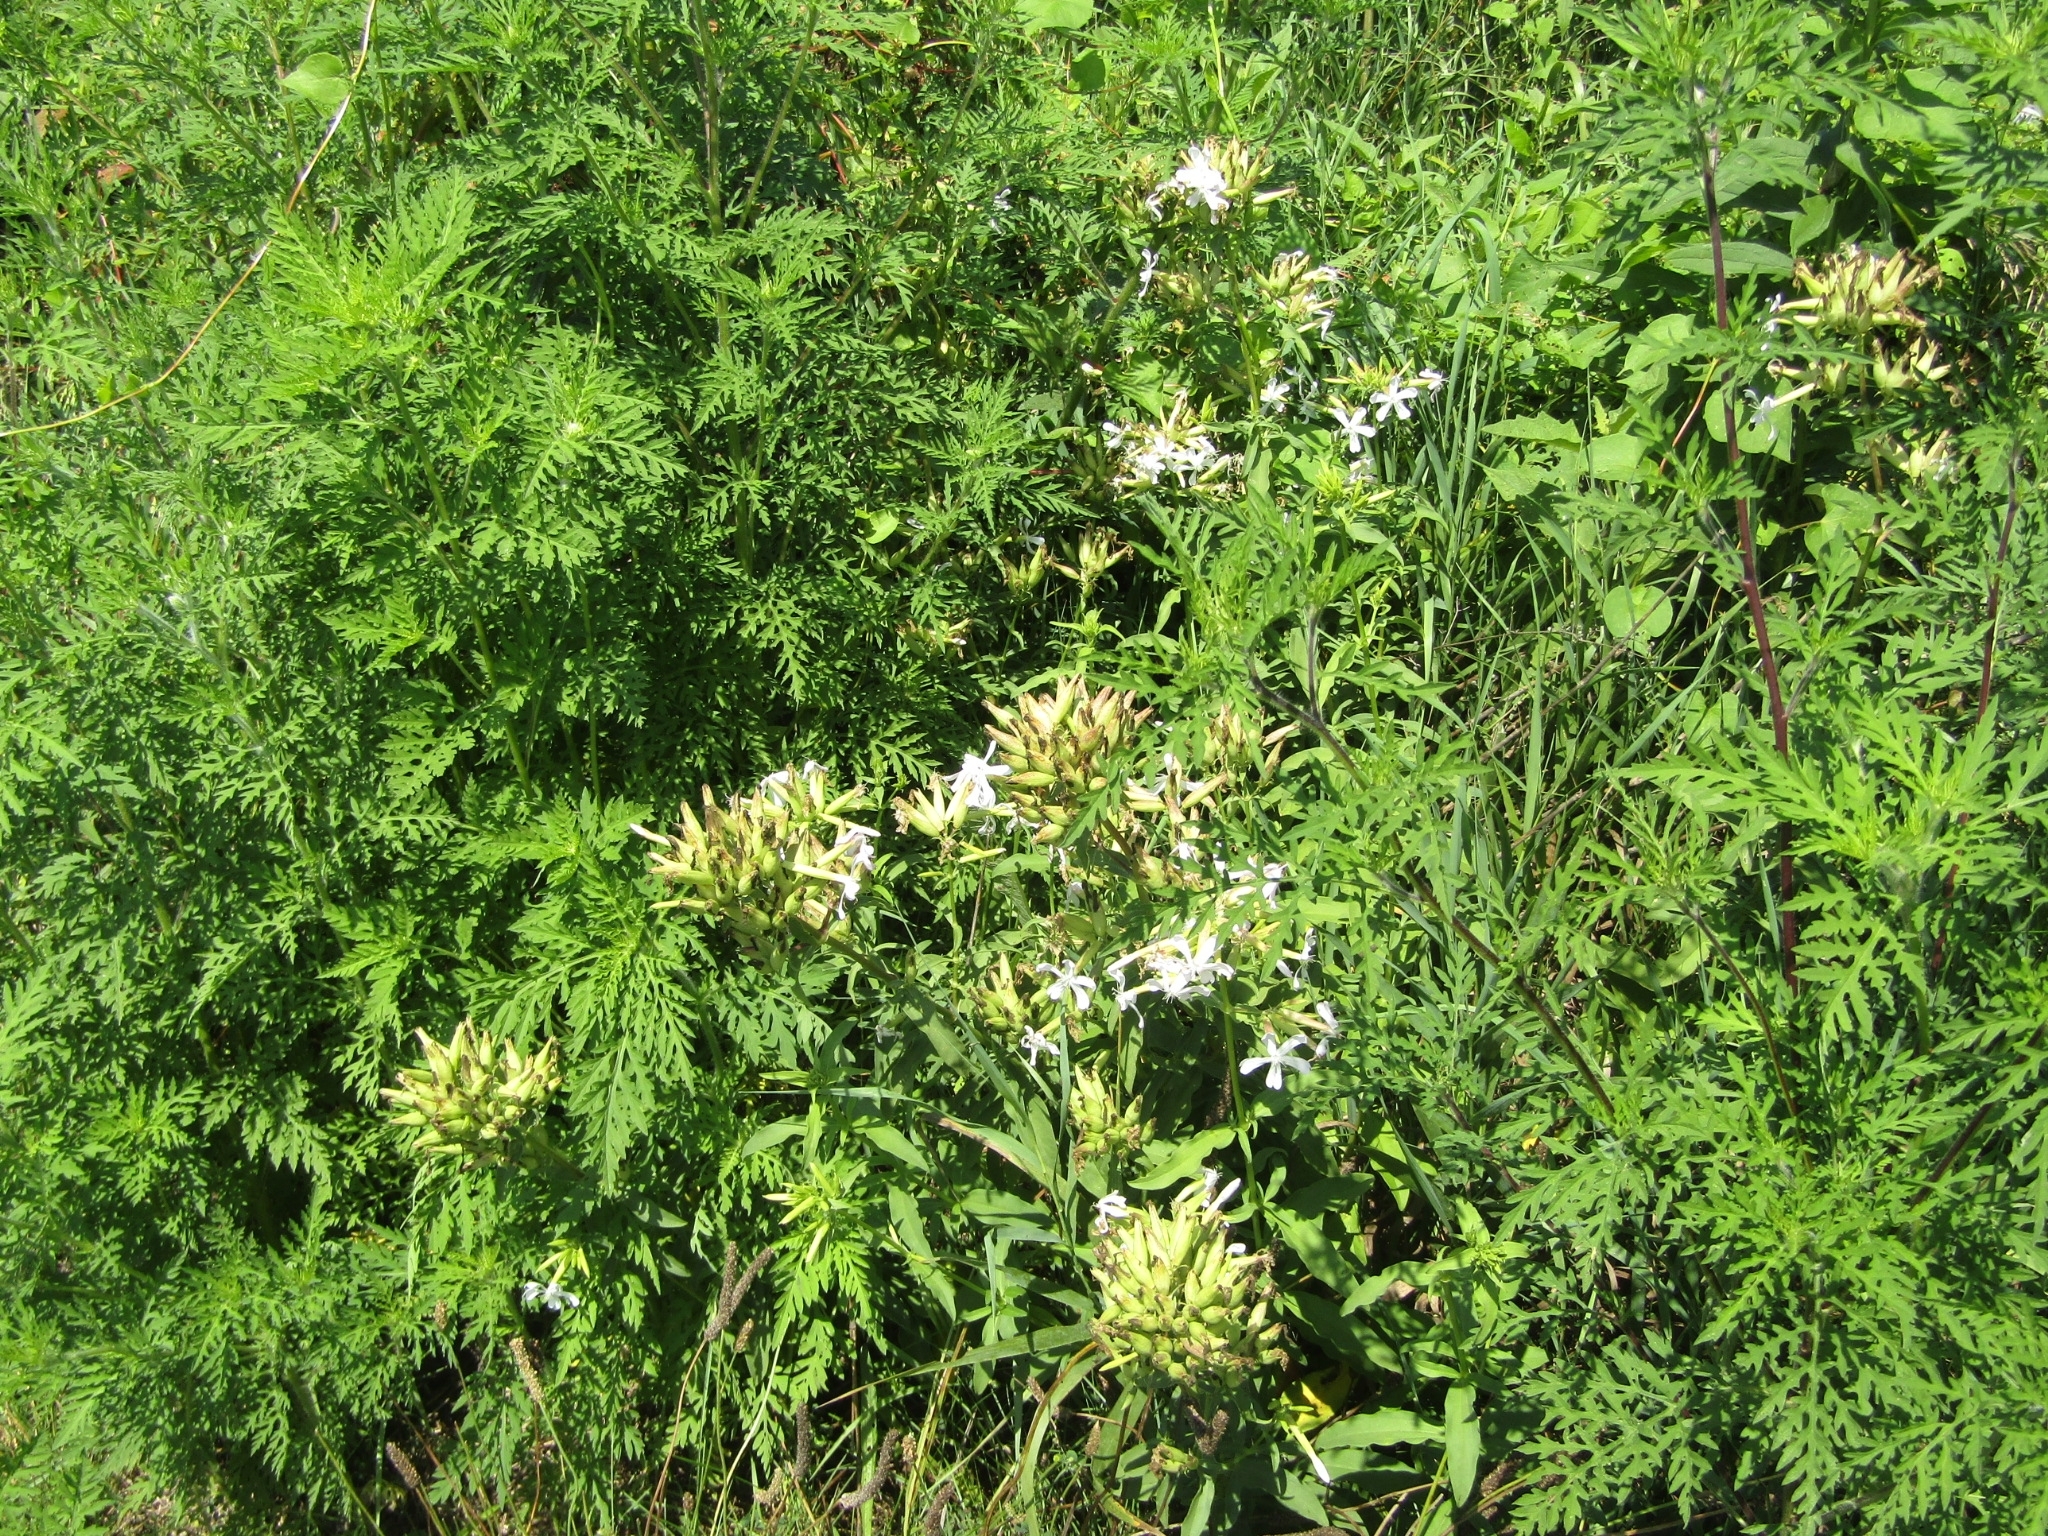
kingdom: Plantae
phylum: Tracheophyta
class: Magnoliopsida
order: Caryophyllales
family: Caryophyllaceae
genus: Saponaria
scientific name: Saponaria officinalis
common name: Soapwort
